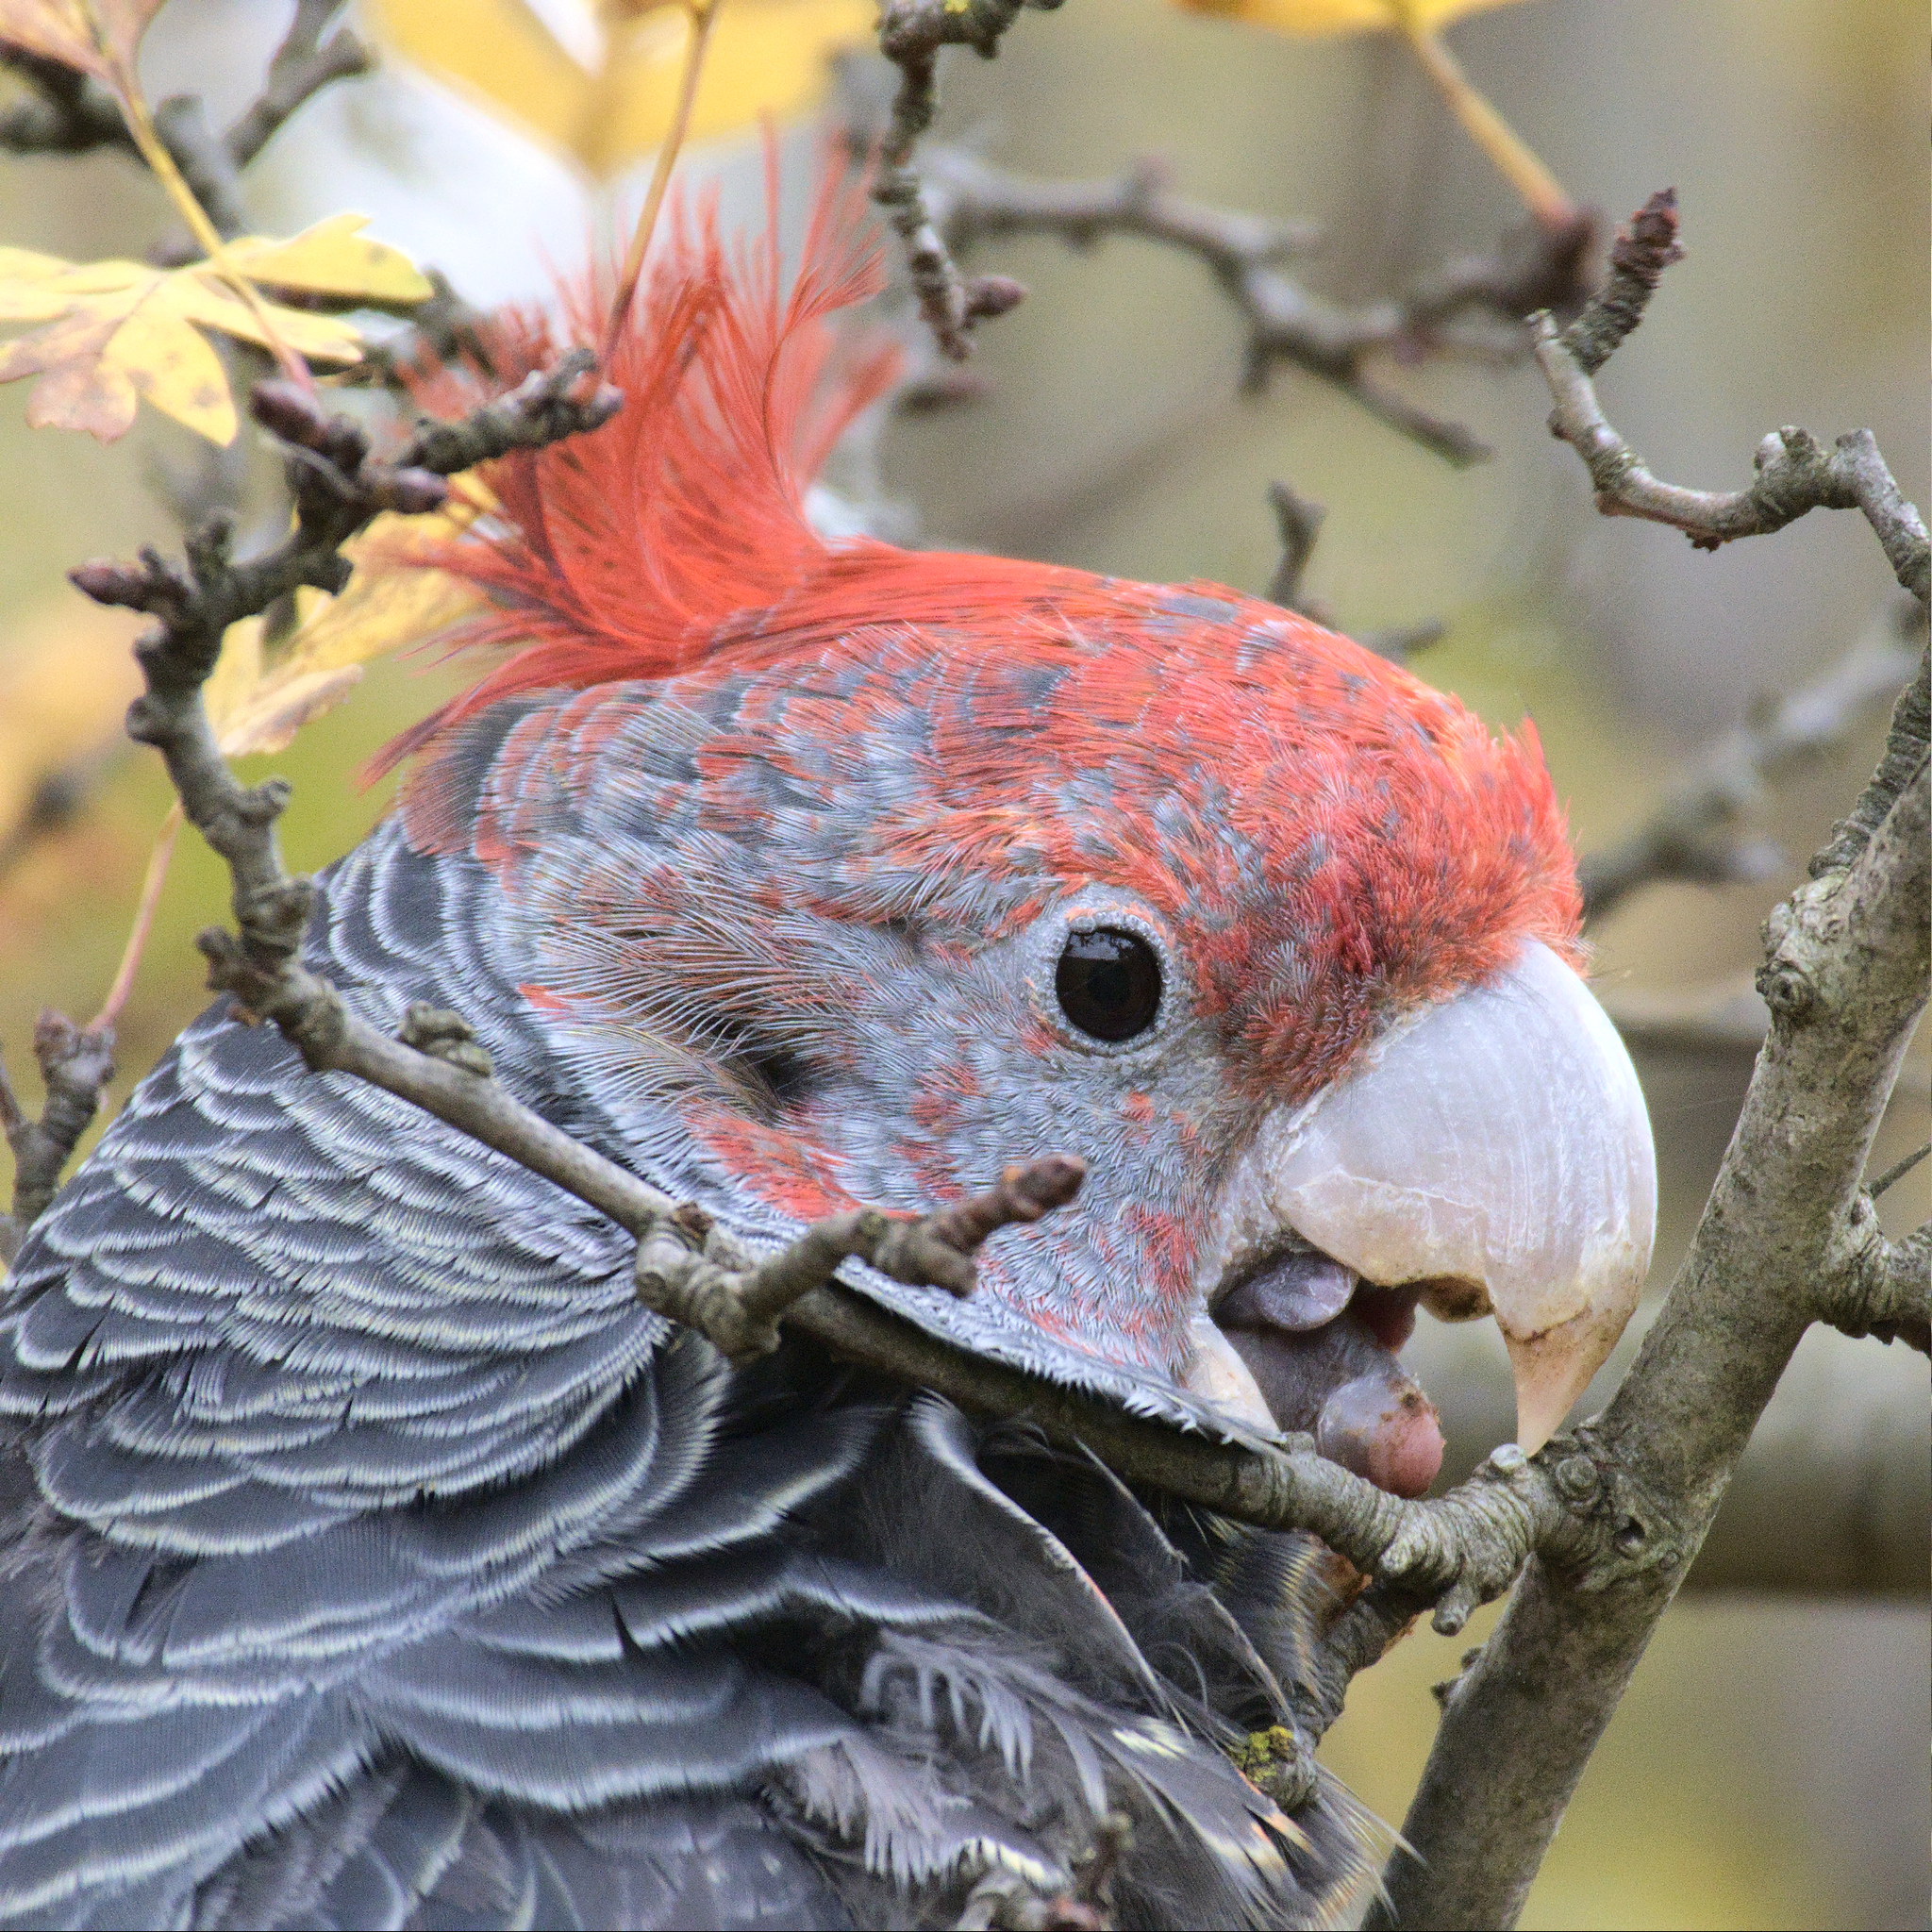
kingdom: Animalia
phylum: Chordata
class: Aves
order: Psittaciformes
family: Psittacidae
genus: Callocephalon
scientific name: Callocephalon fimbriatum
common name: Gang-gang cockatoo
